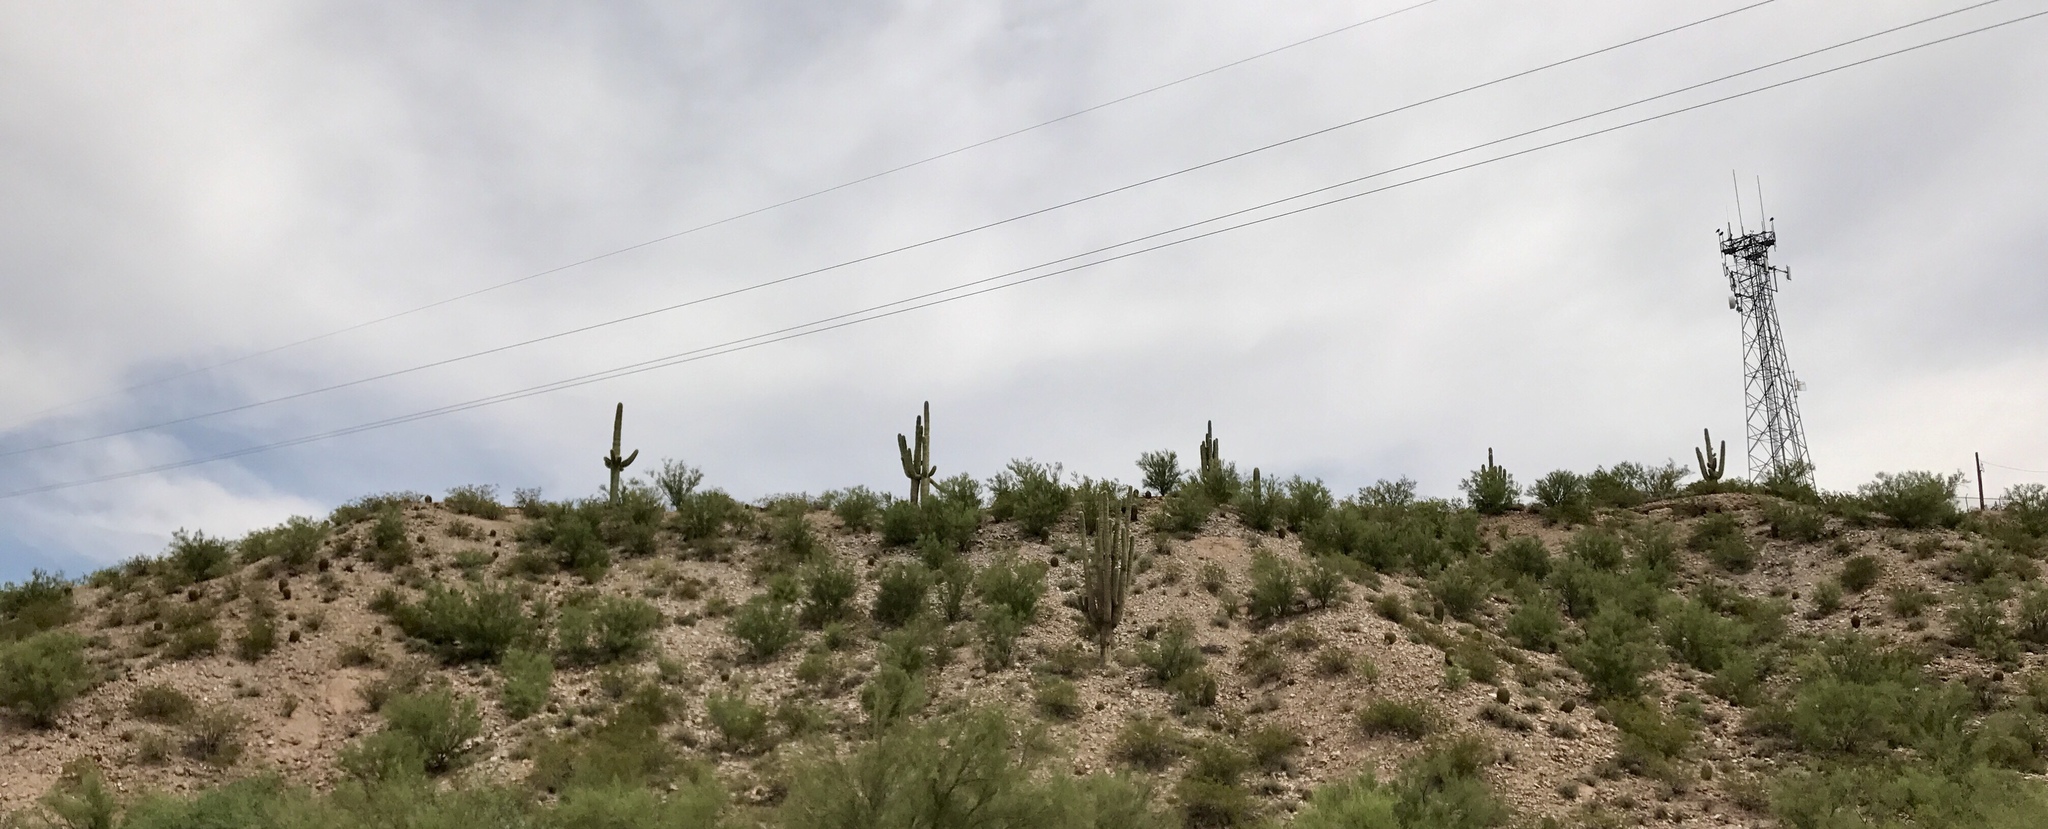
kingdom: Plantae
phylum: Tracheophyta
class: Magnoliopsida
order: Caryophyllales
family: Cactaceae
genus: Carnegiea
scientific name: Carnegiea gigantea
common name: Saguaro
